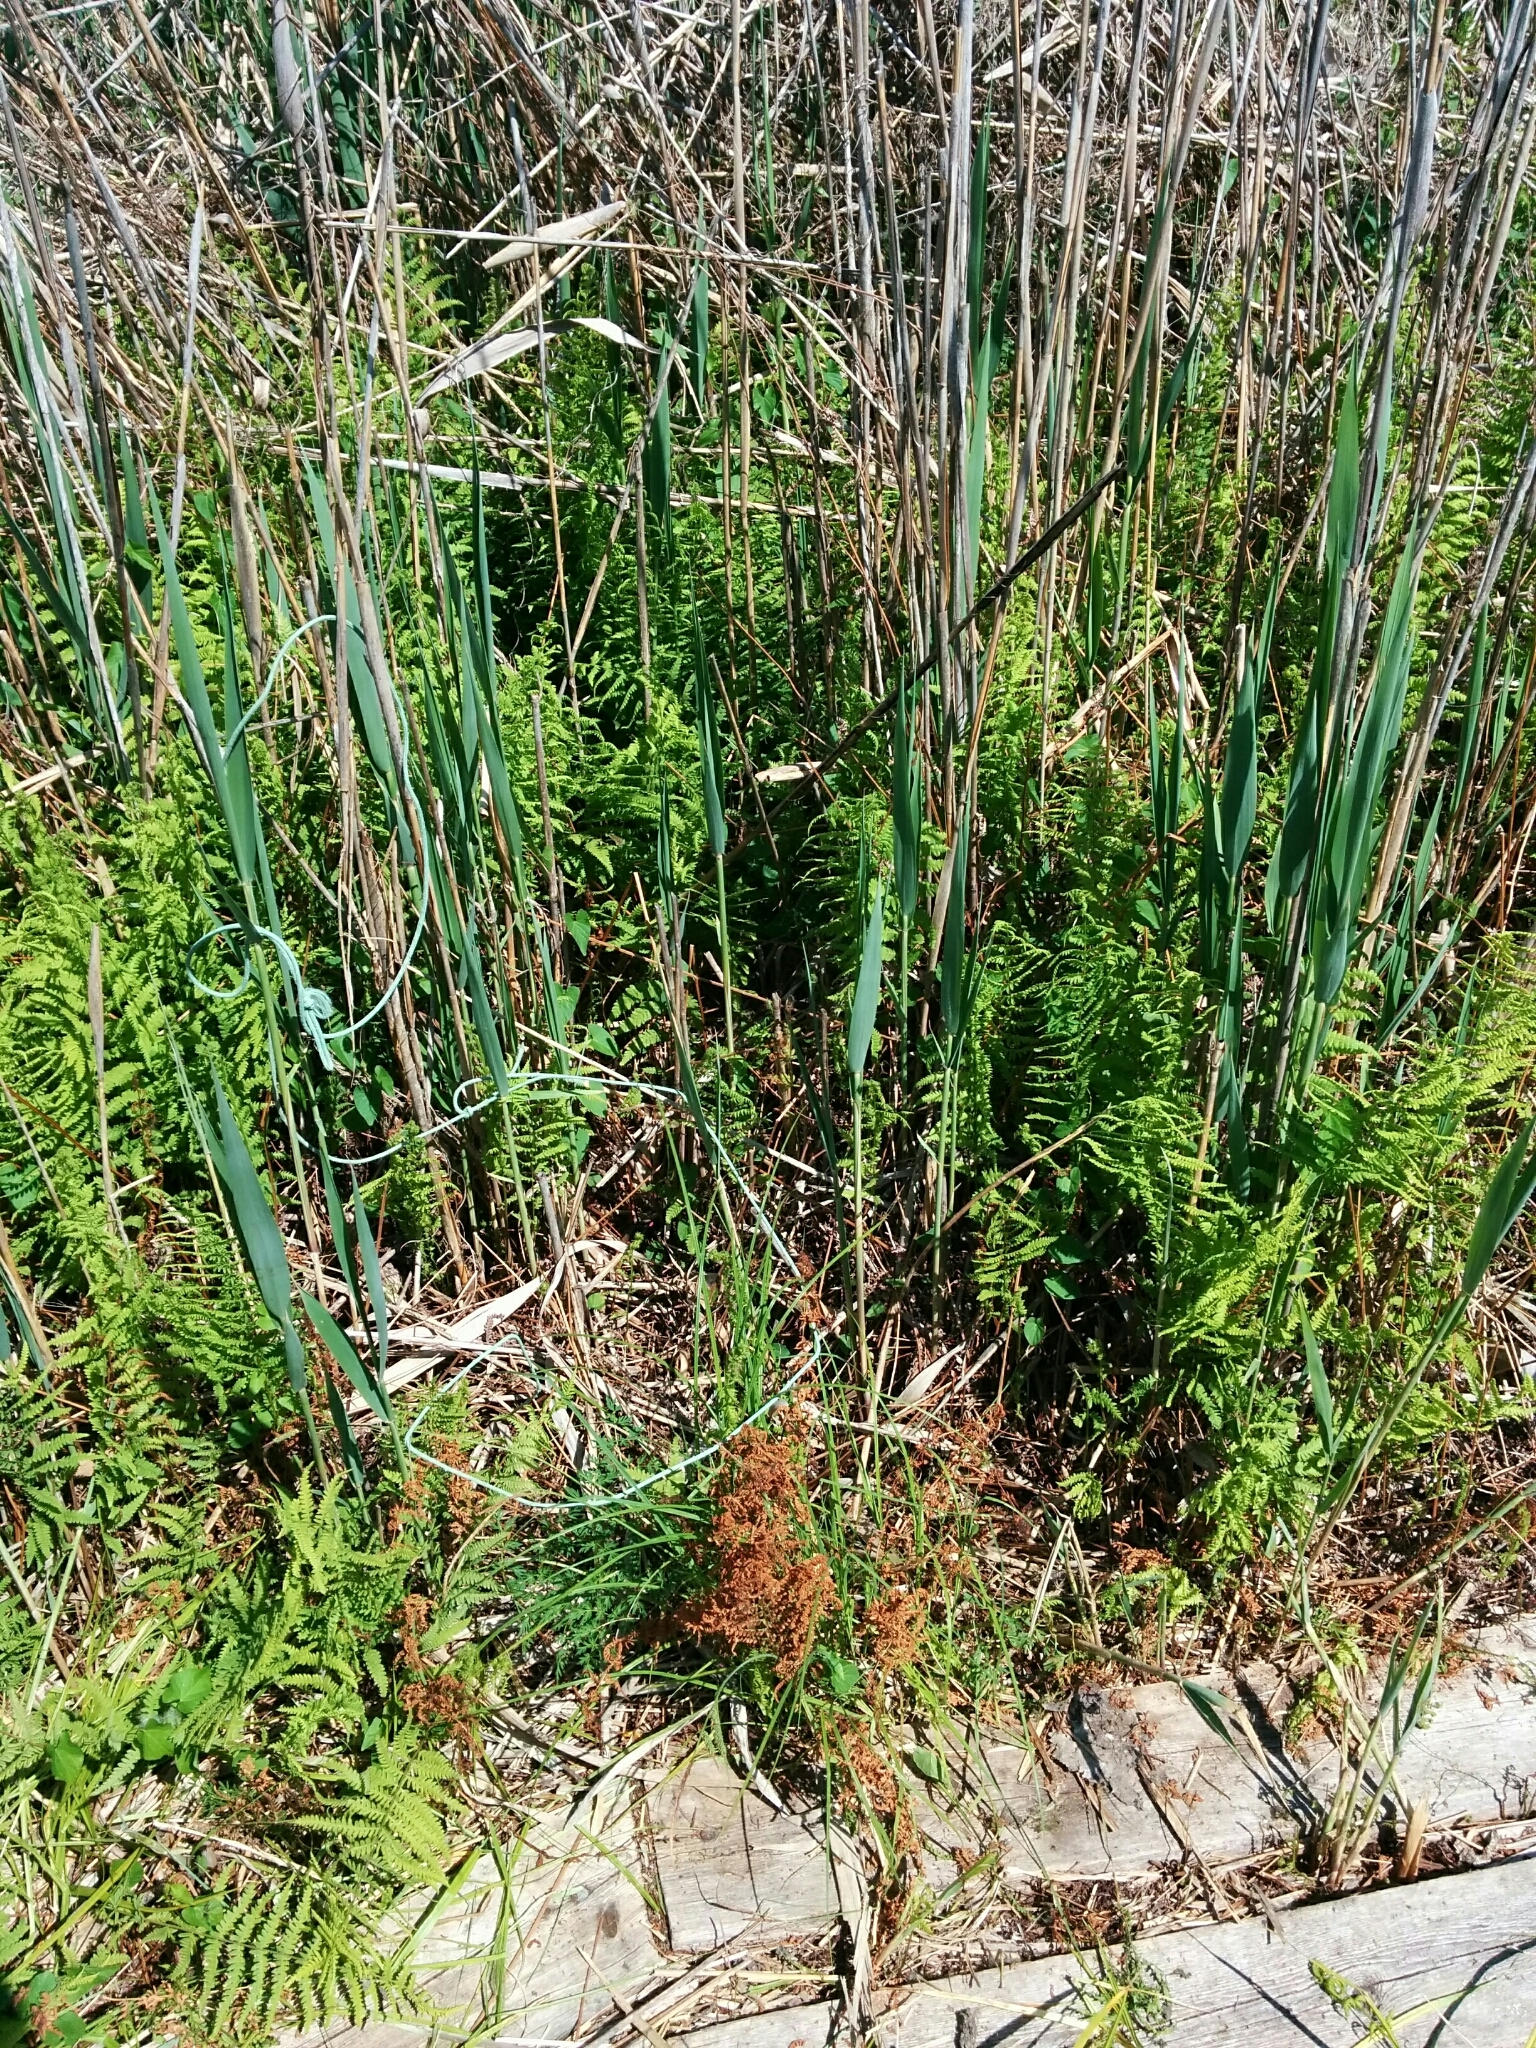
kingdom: Animalia
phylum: Chordata
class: Squamata
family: Colubridae
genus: Natrix
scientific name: Natrix tessellata
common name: Dice snake
